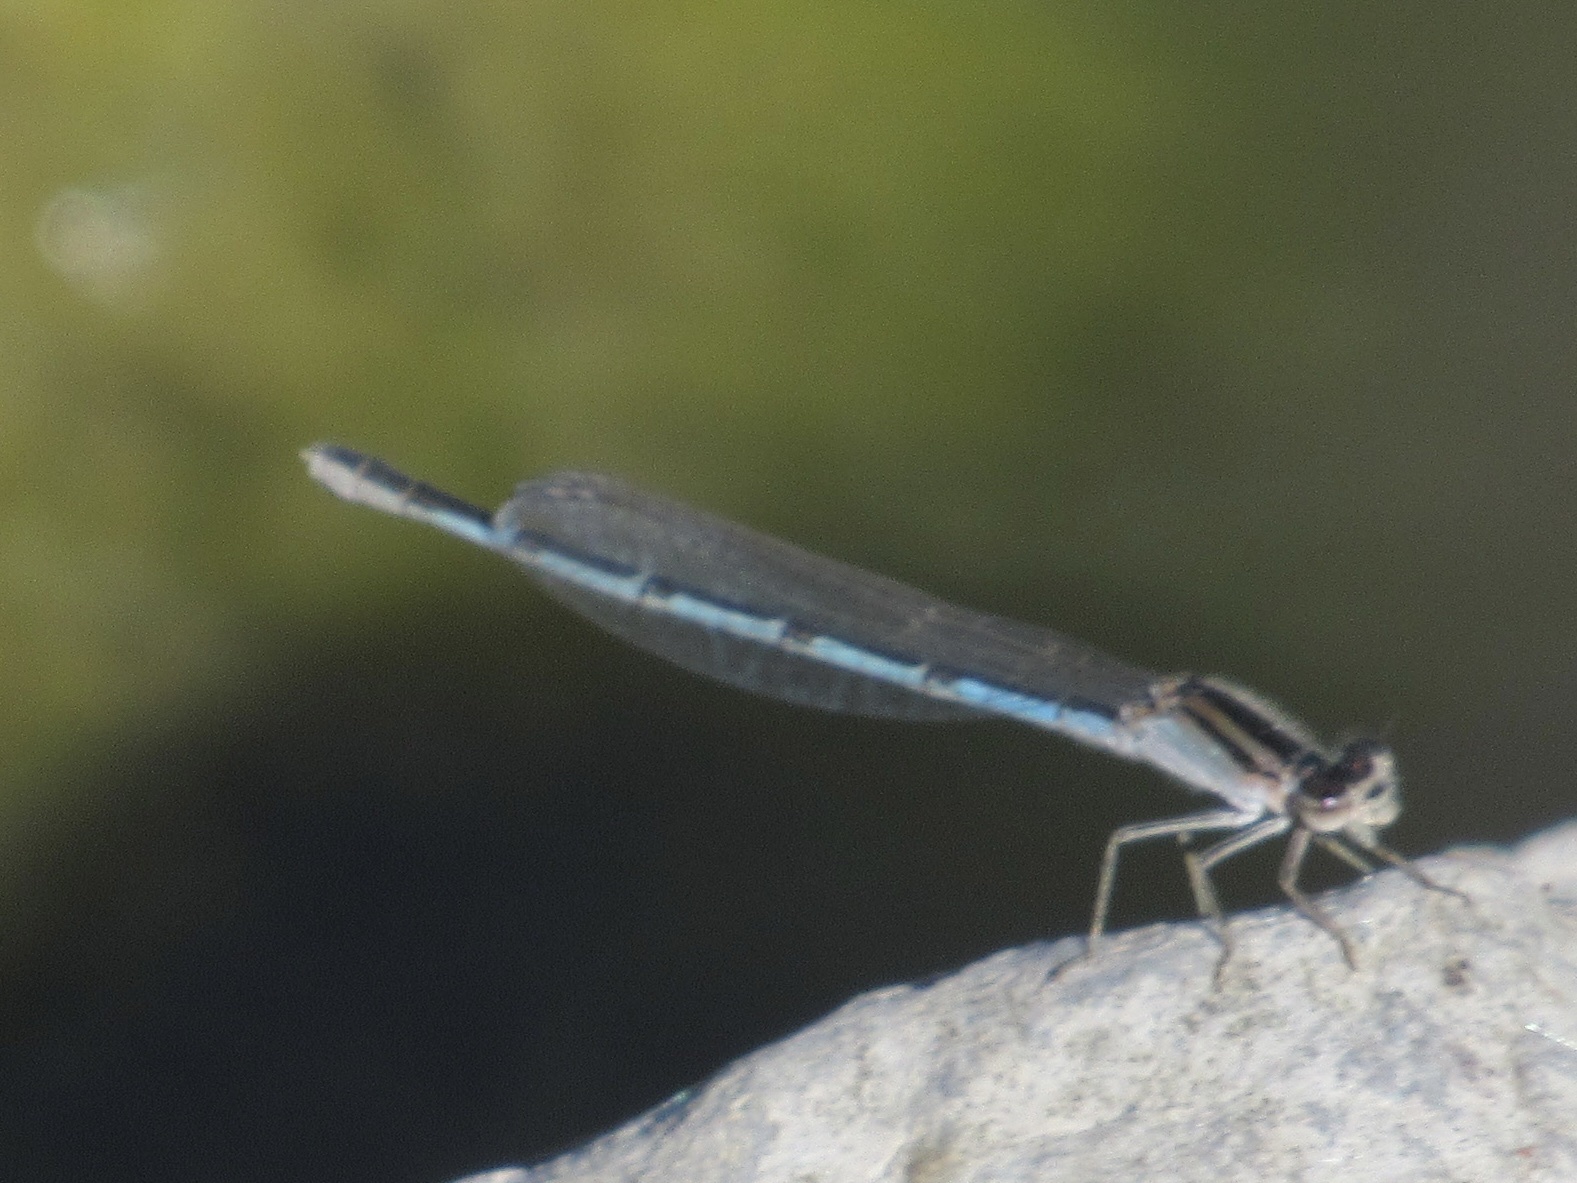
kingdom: Animalia
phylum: Arthropoda
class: Insecta
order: Odonata
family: Coenagrionidae
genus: Enallagma
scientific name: Enallagma civile
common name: Damselfly
